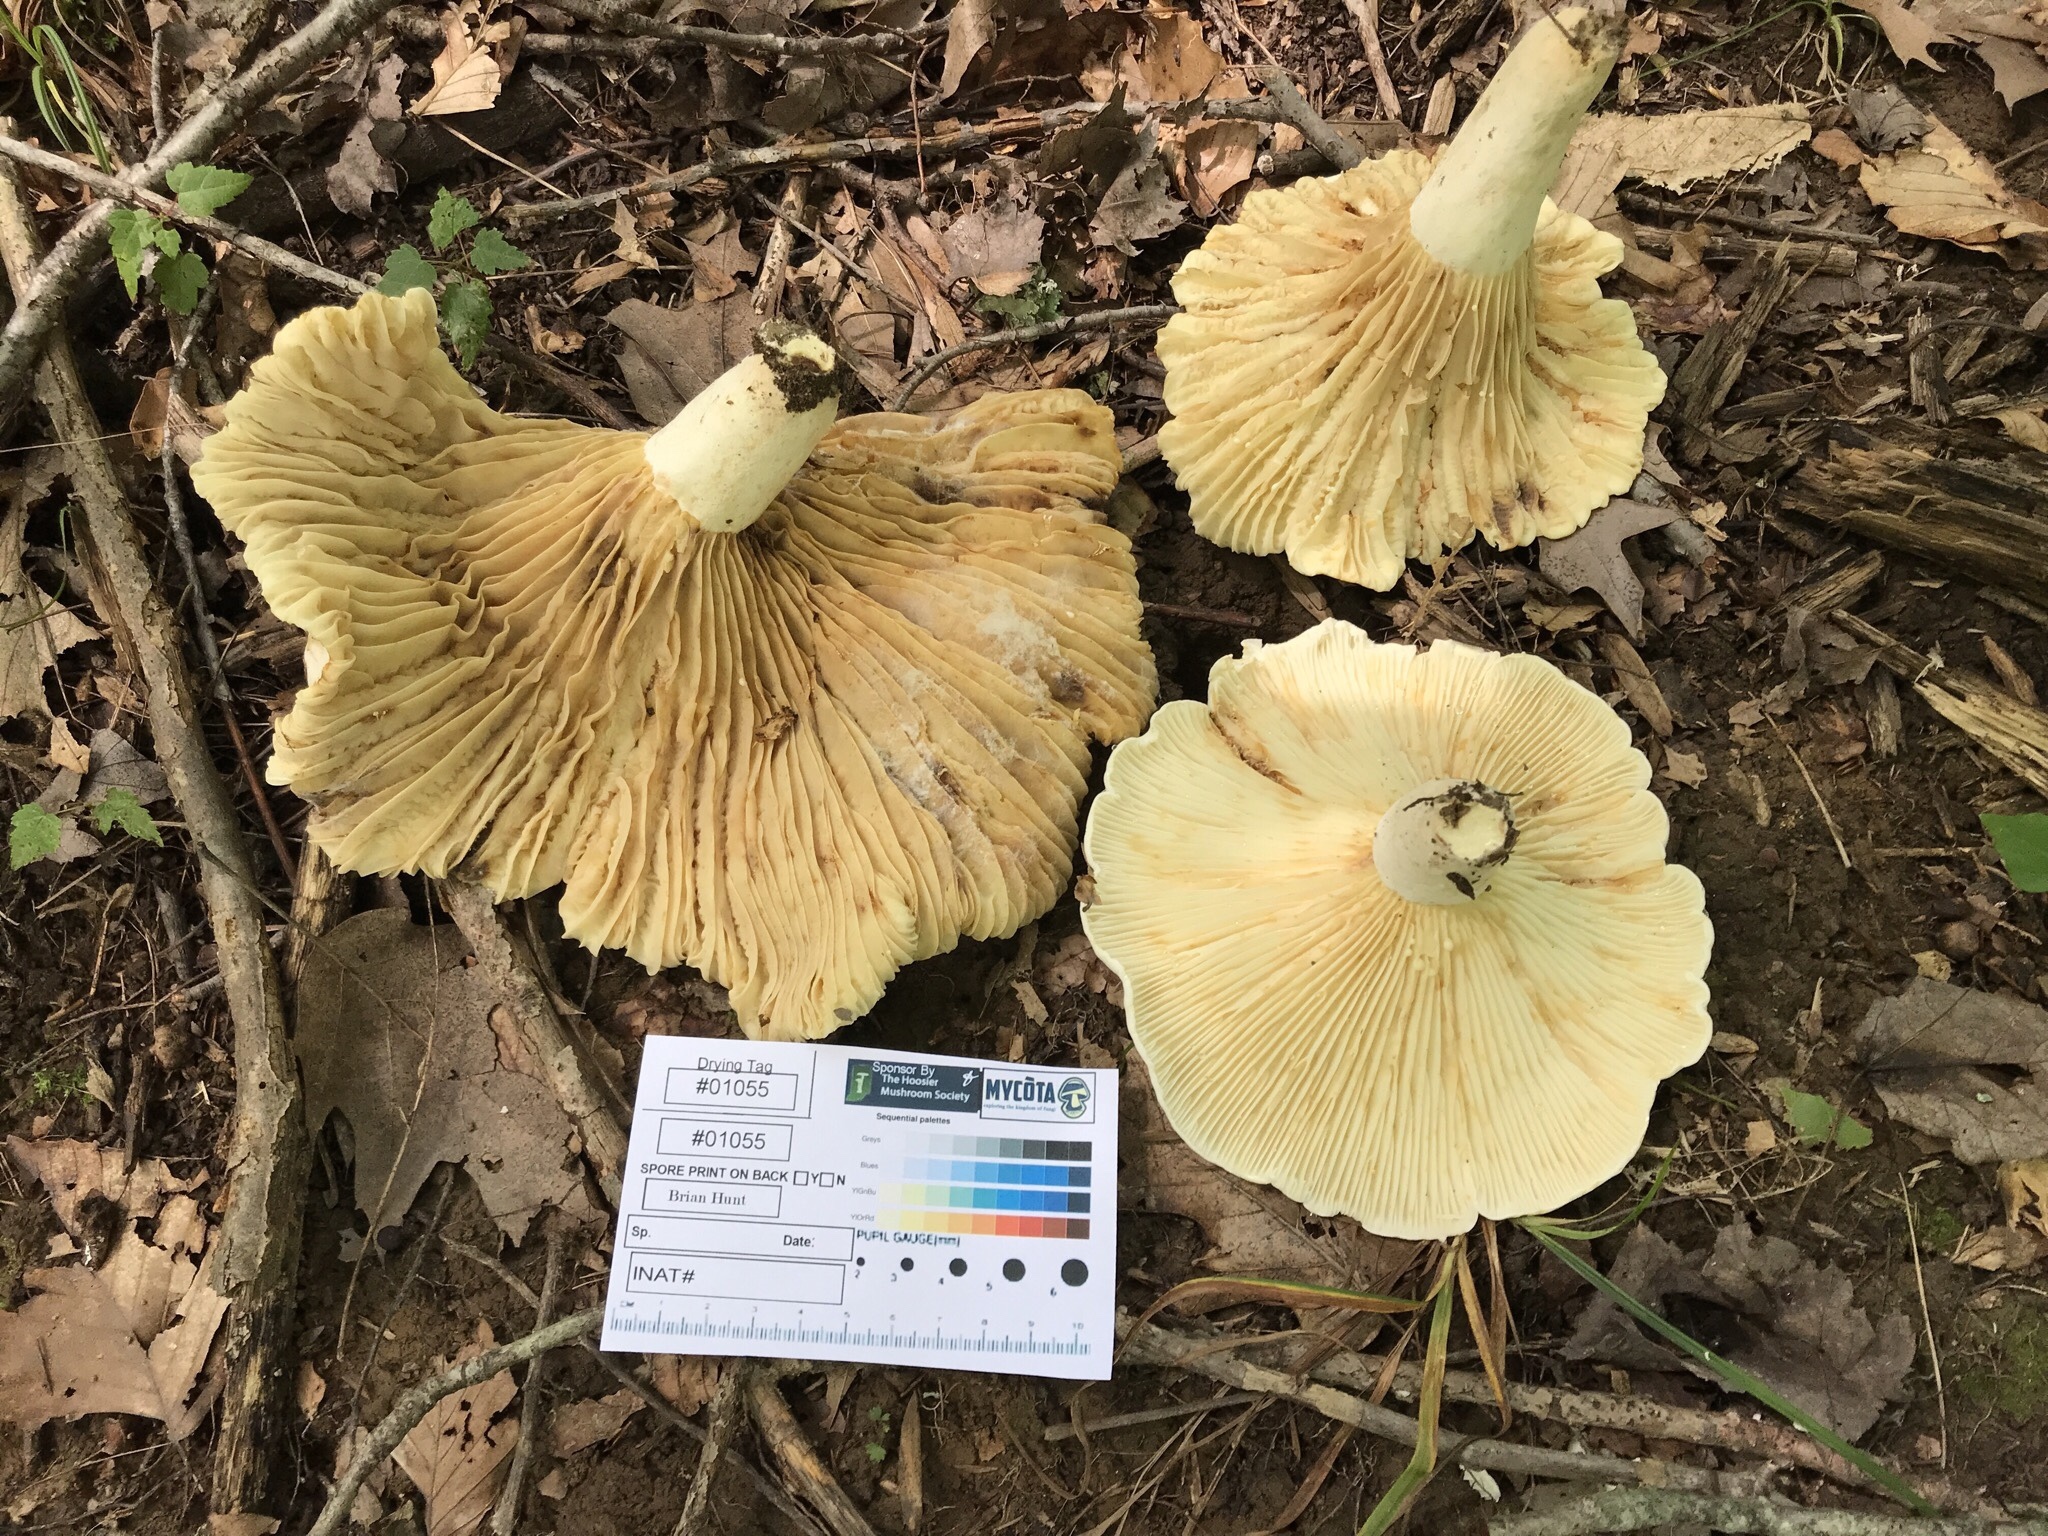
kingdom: Fungi
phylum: Basidiomycota
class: Agaricomycetes
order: Russulales
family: Russulaceae
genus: Lactifluus
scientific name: Lactifluus subvellereus
